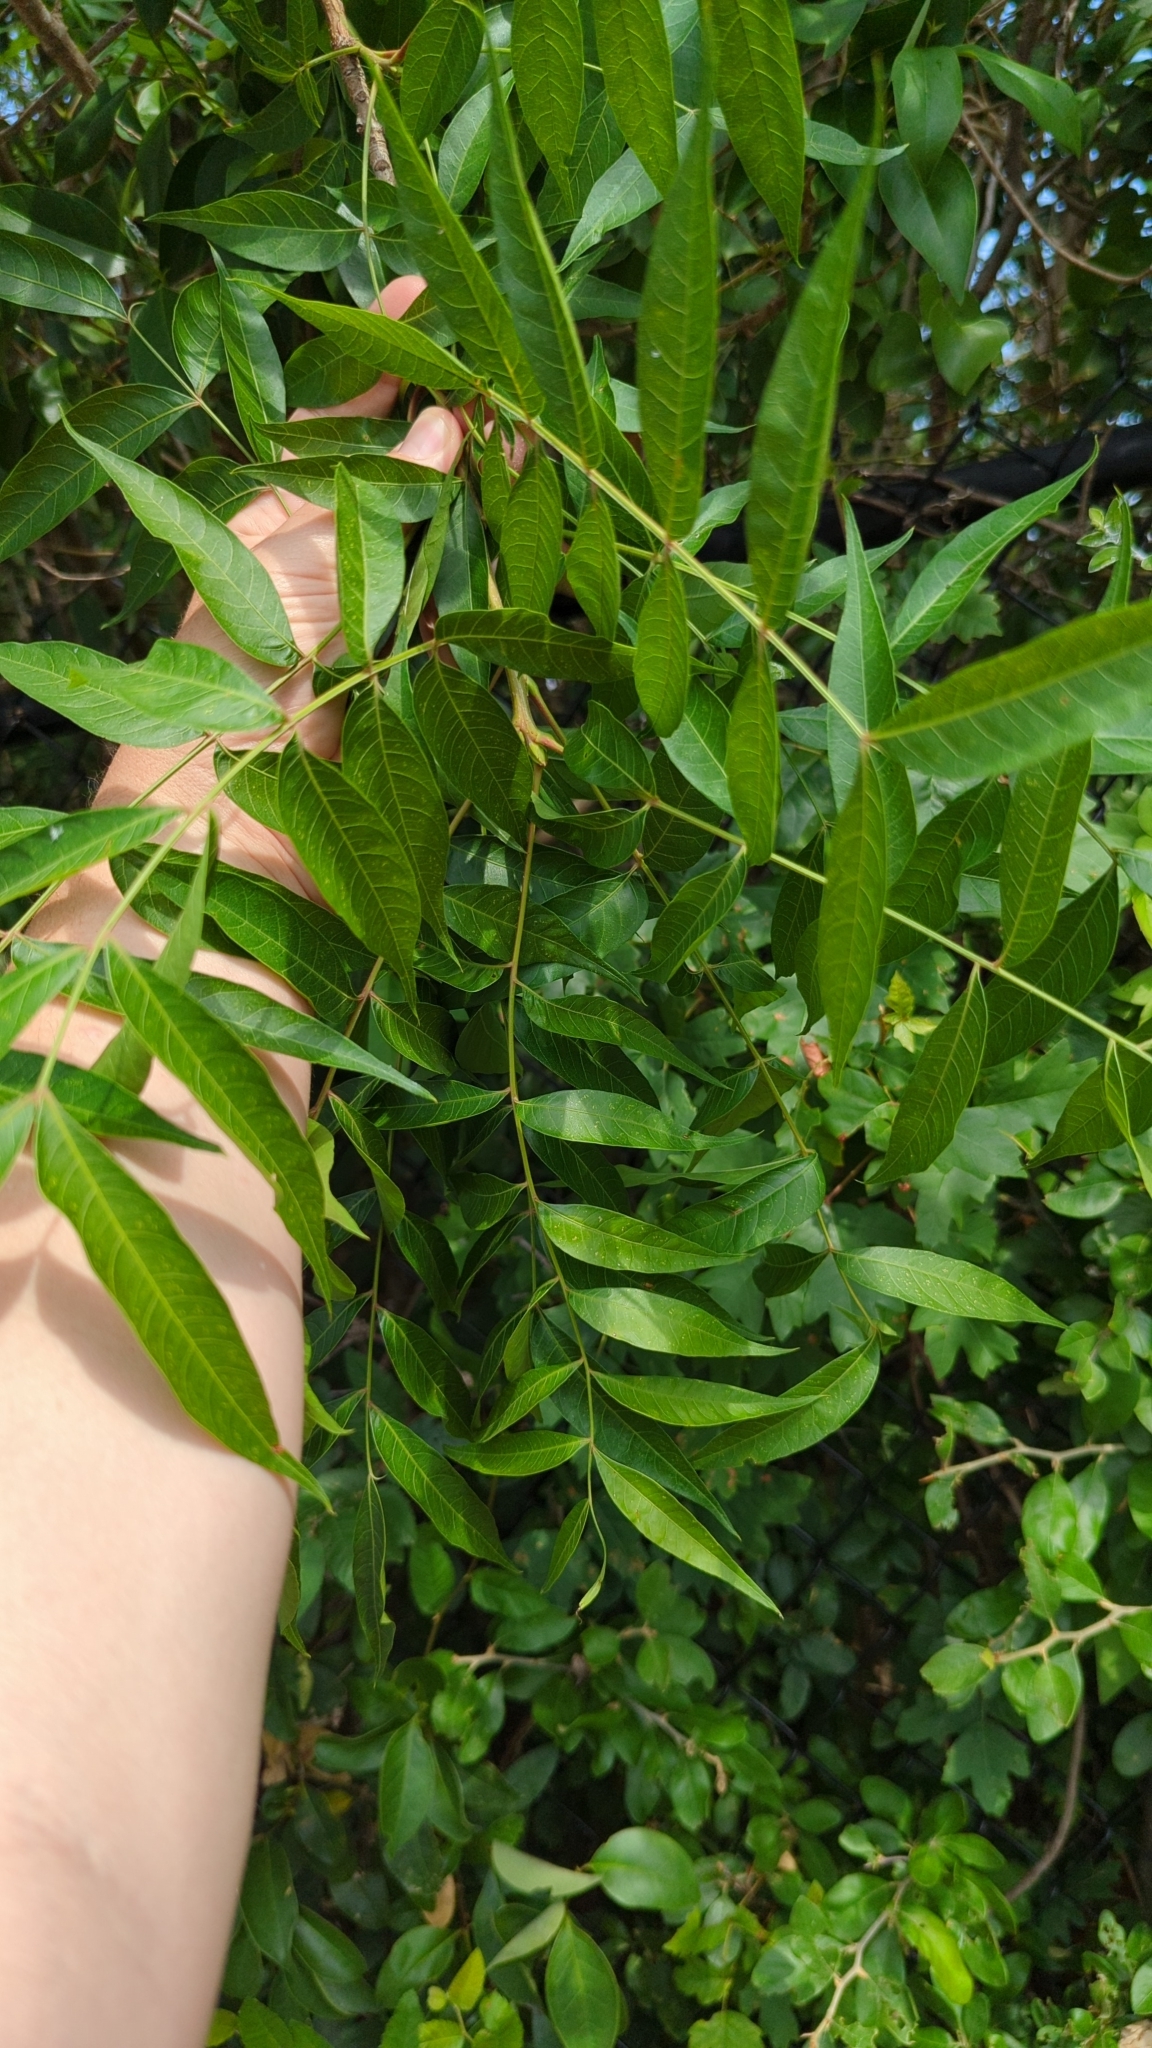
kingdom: Plantae
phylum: Tracheophyta
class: Magnoliopsida
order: Sapindales
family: Anacardiaceae
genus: Pistacia
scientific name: Pistacia chinensis
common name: Chinese pistache
